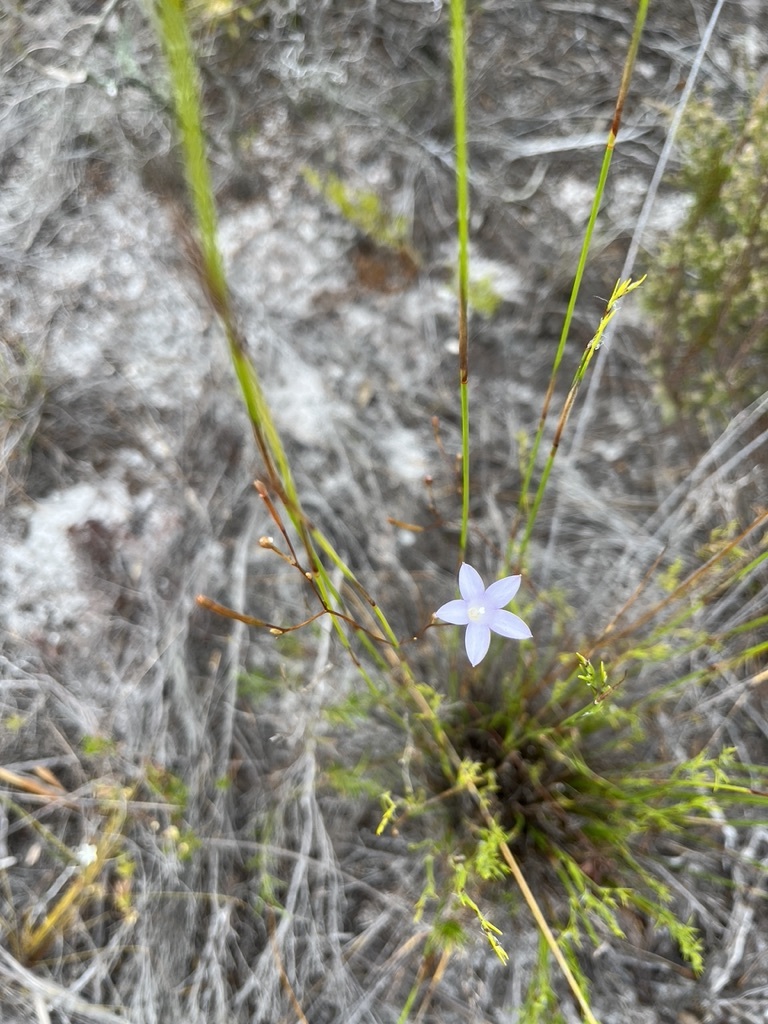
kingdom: Plantae
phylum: Tracheophyta
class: Magnoliopsida
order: Asterales
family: Campanulaceae
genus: Prismatocarpus
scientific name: Prismatocarpus brevilobus
